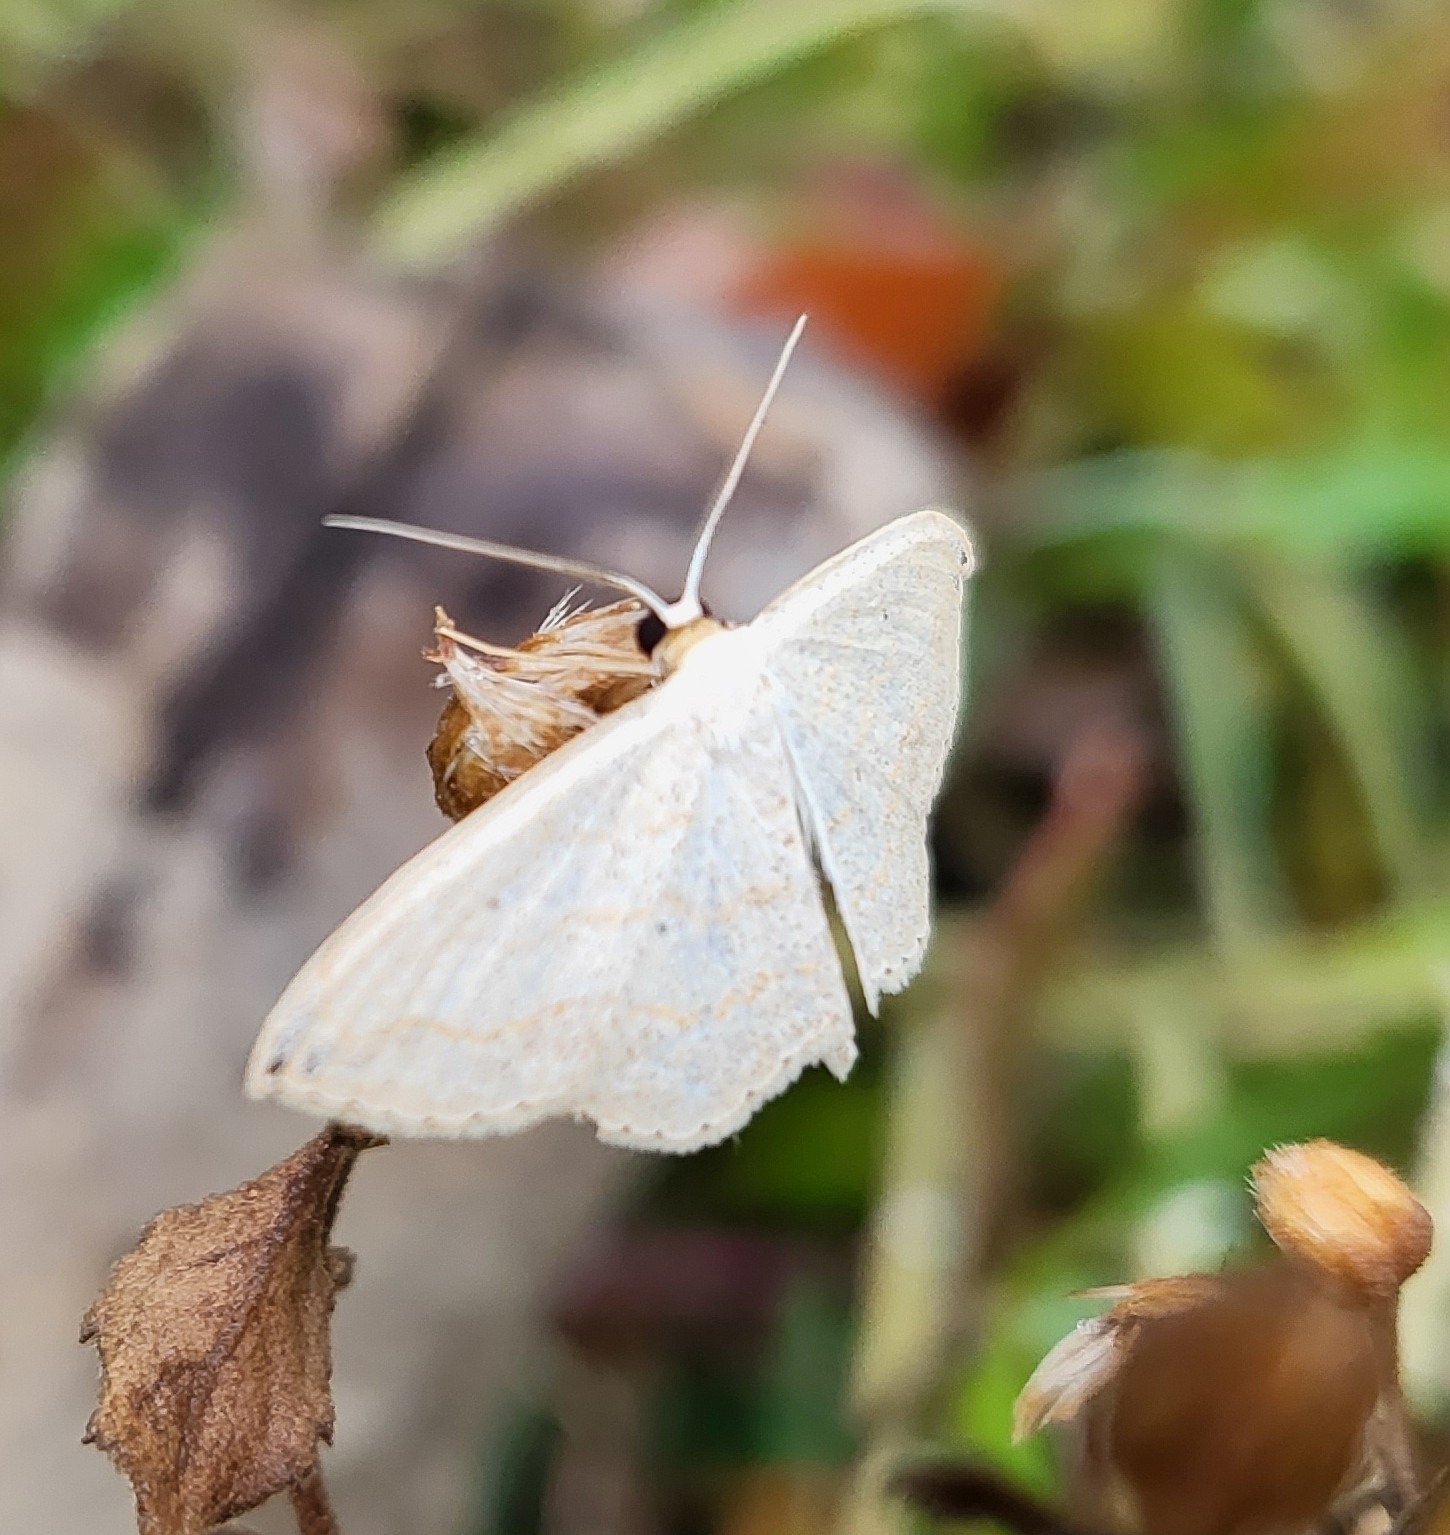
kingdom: Animalia
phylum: Arthropoda
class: Insecta
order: Lepidoptera
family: Geometridae
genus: Scopula
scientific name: Scopula umbilicata
